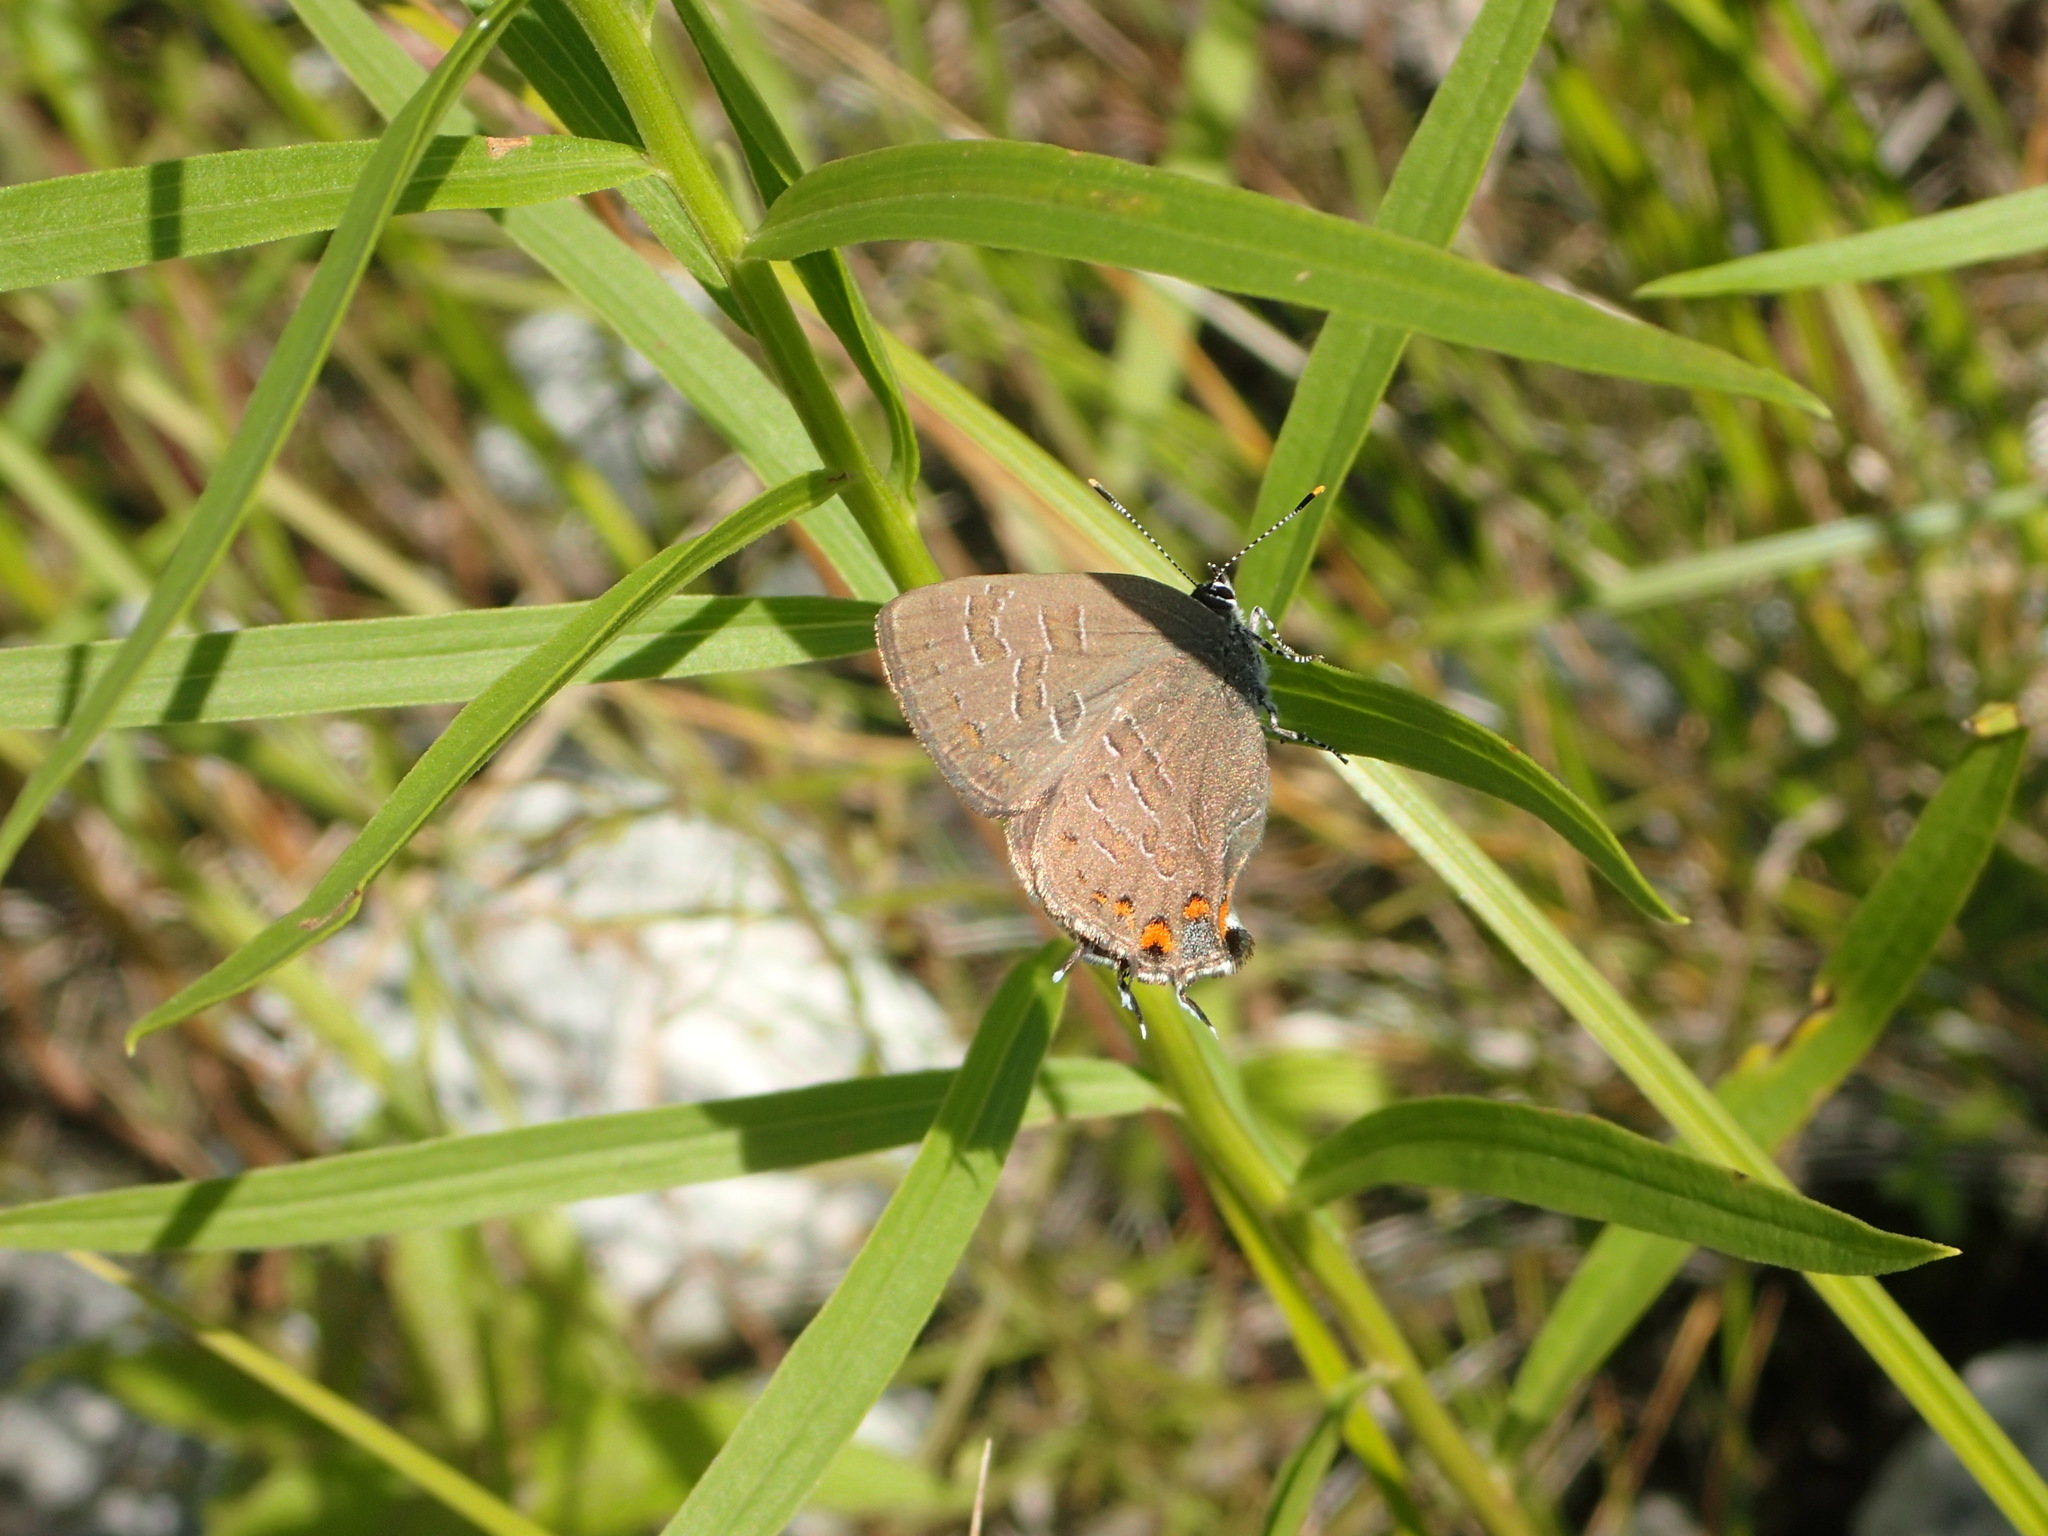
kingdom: Animalia
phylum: Arthropoda
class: Insecta
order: Lepidoptera
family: Lycaenidae
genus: Satyrium
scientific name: Satyrium liparops
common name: Striped hairstreak
